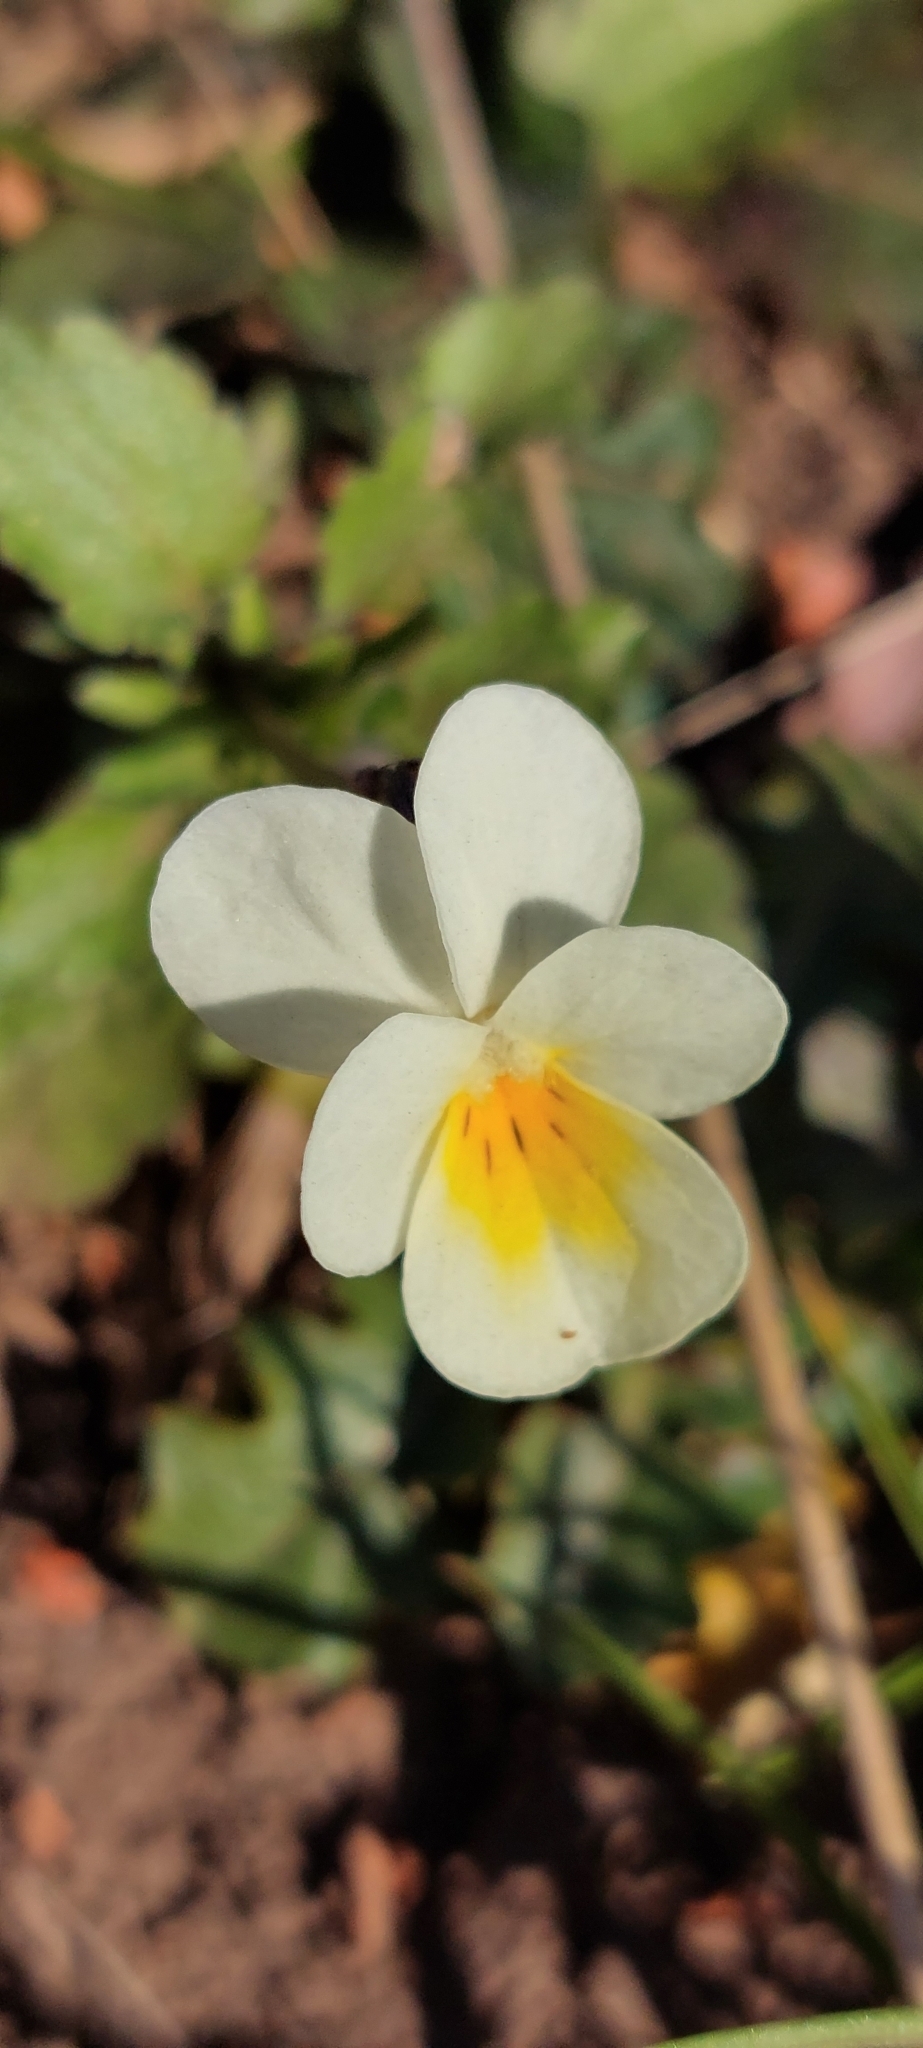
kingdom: Plantae
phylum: Tracheophyta
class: Magnoliopsida
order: Malpighiales
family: Violaceae
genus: Viola
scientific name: Viola arvensis
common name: Field pansy
